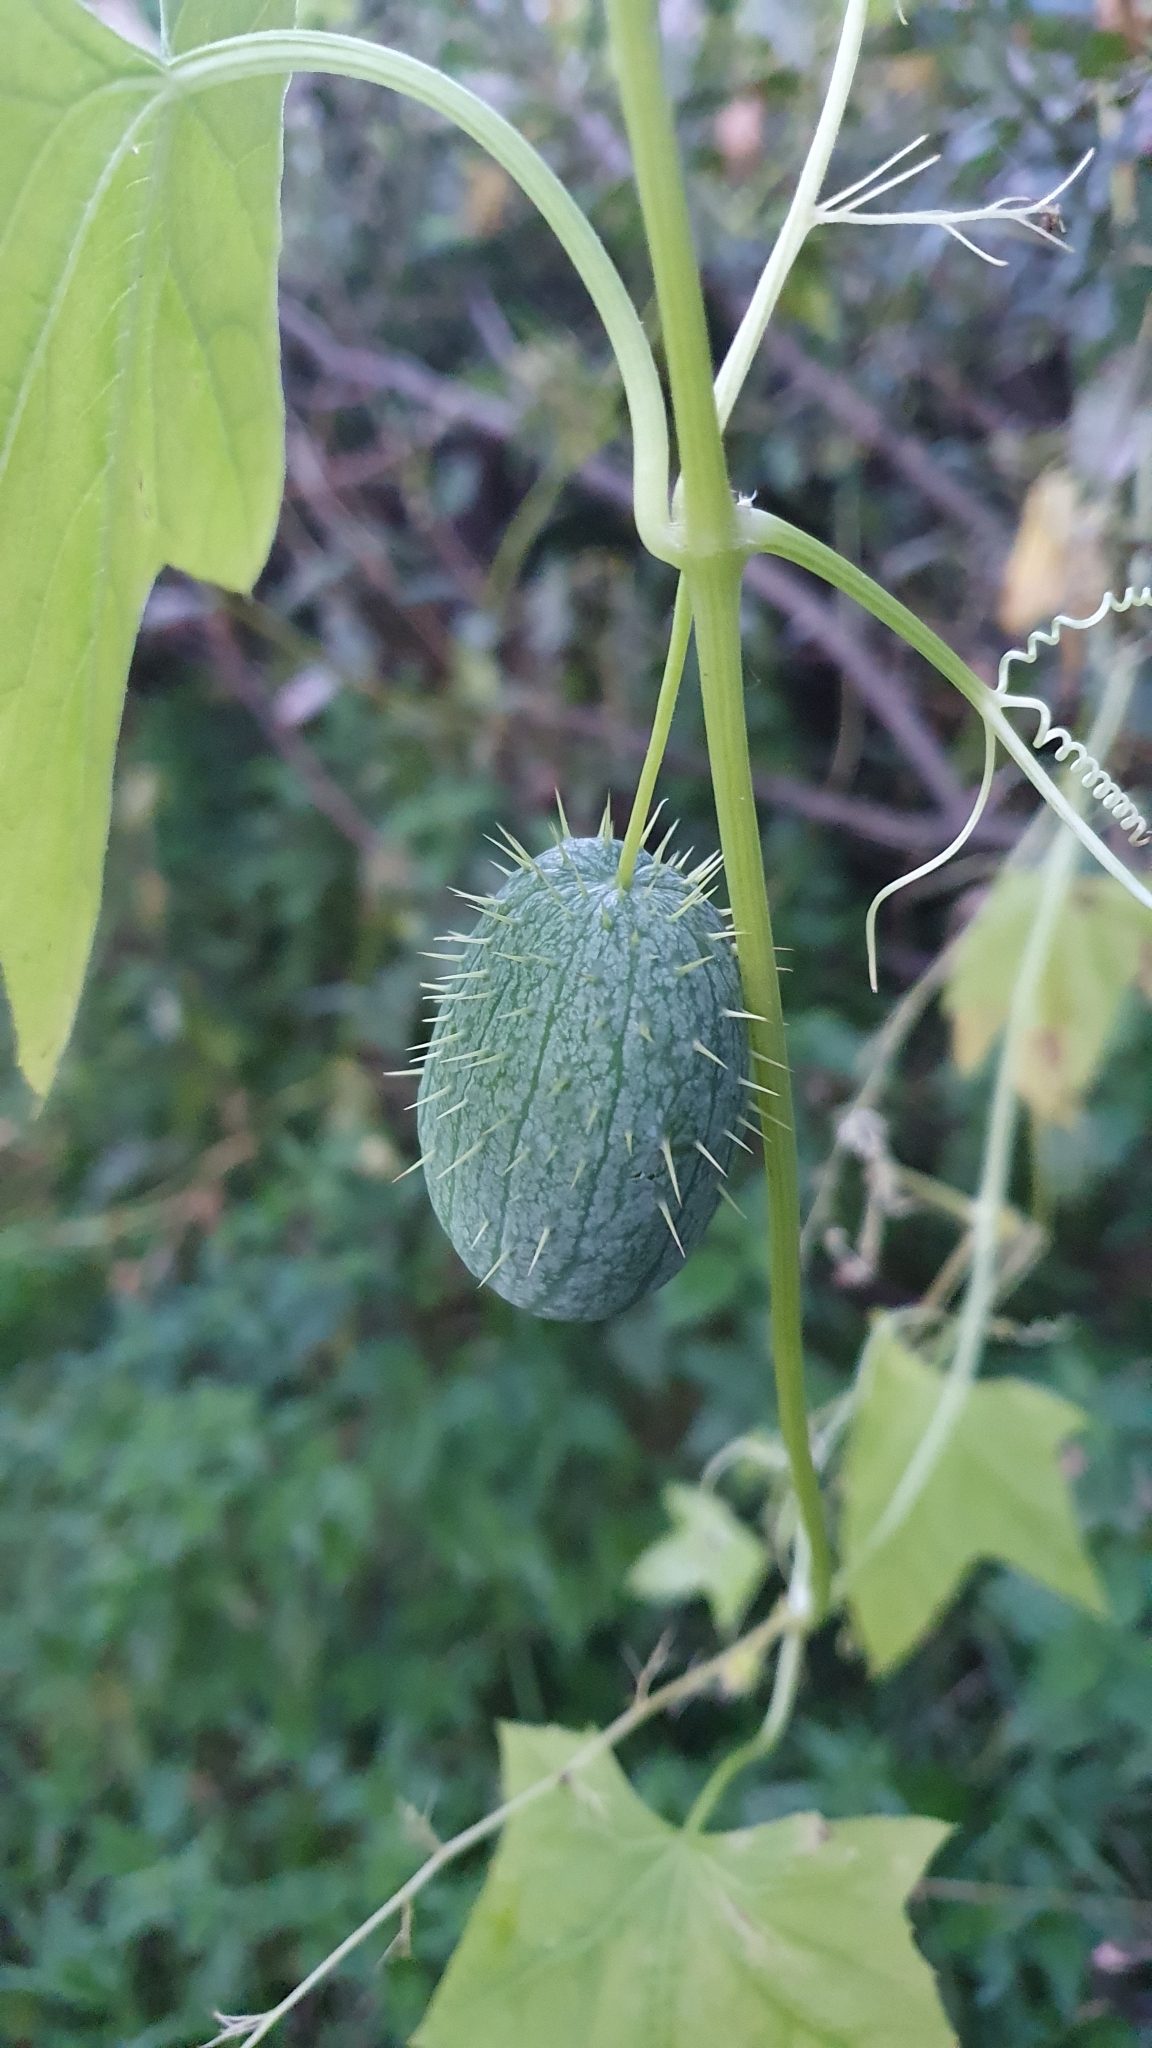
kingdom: Plantae
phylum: Tracheophyta
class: Magnoliopsida
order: Cucurbitales
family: Cucurbitaceae
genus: Echinocystis
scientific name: Echinocystis lobata
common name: Wild cucumber
